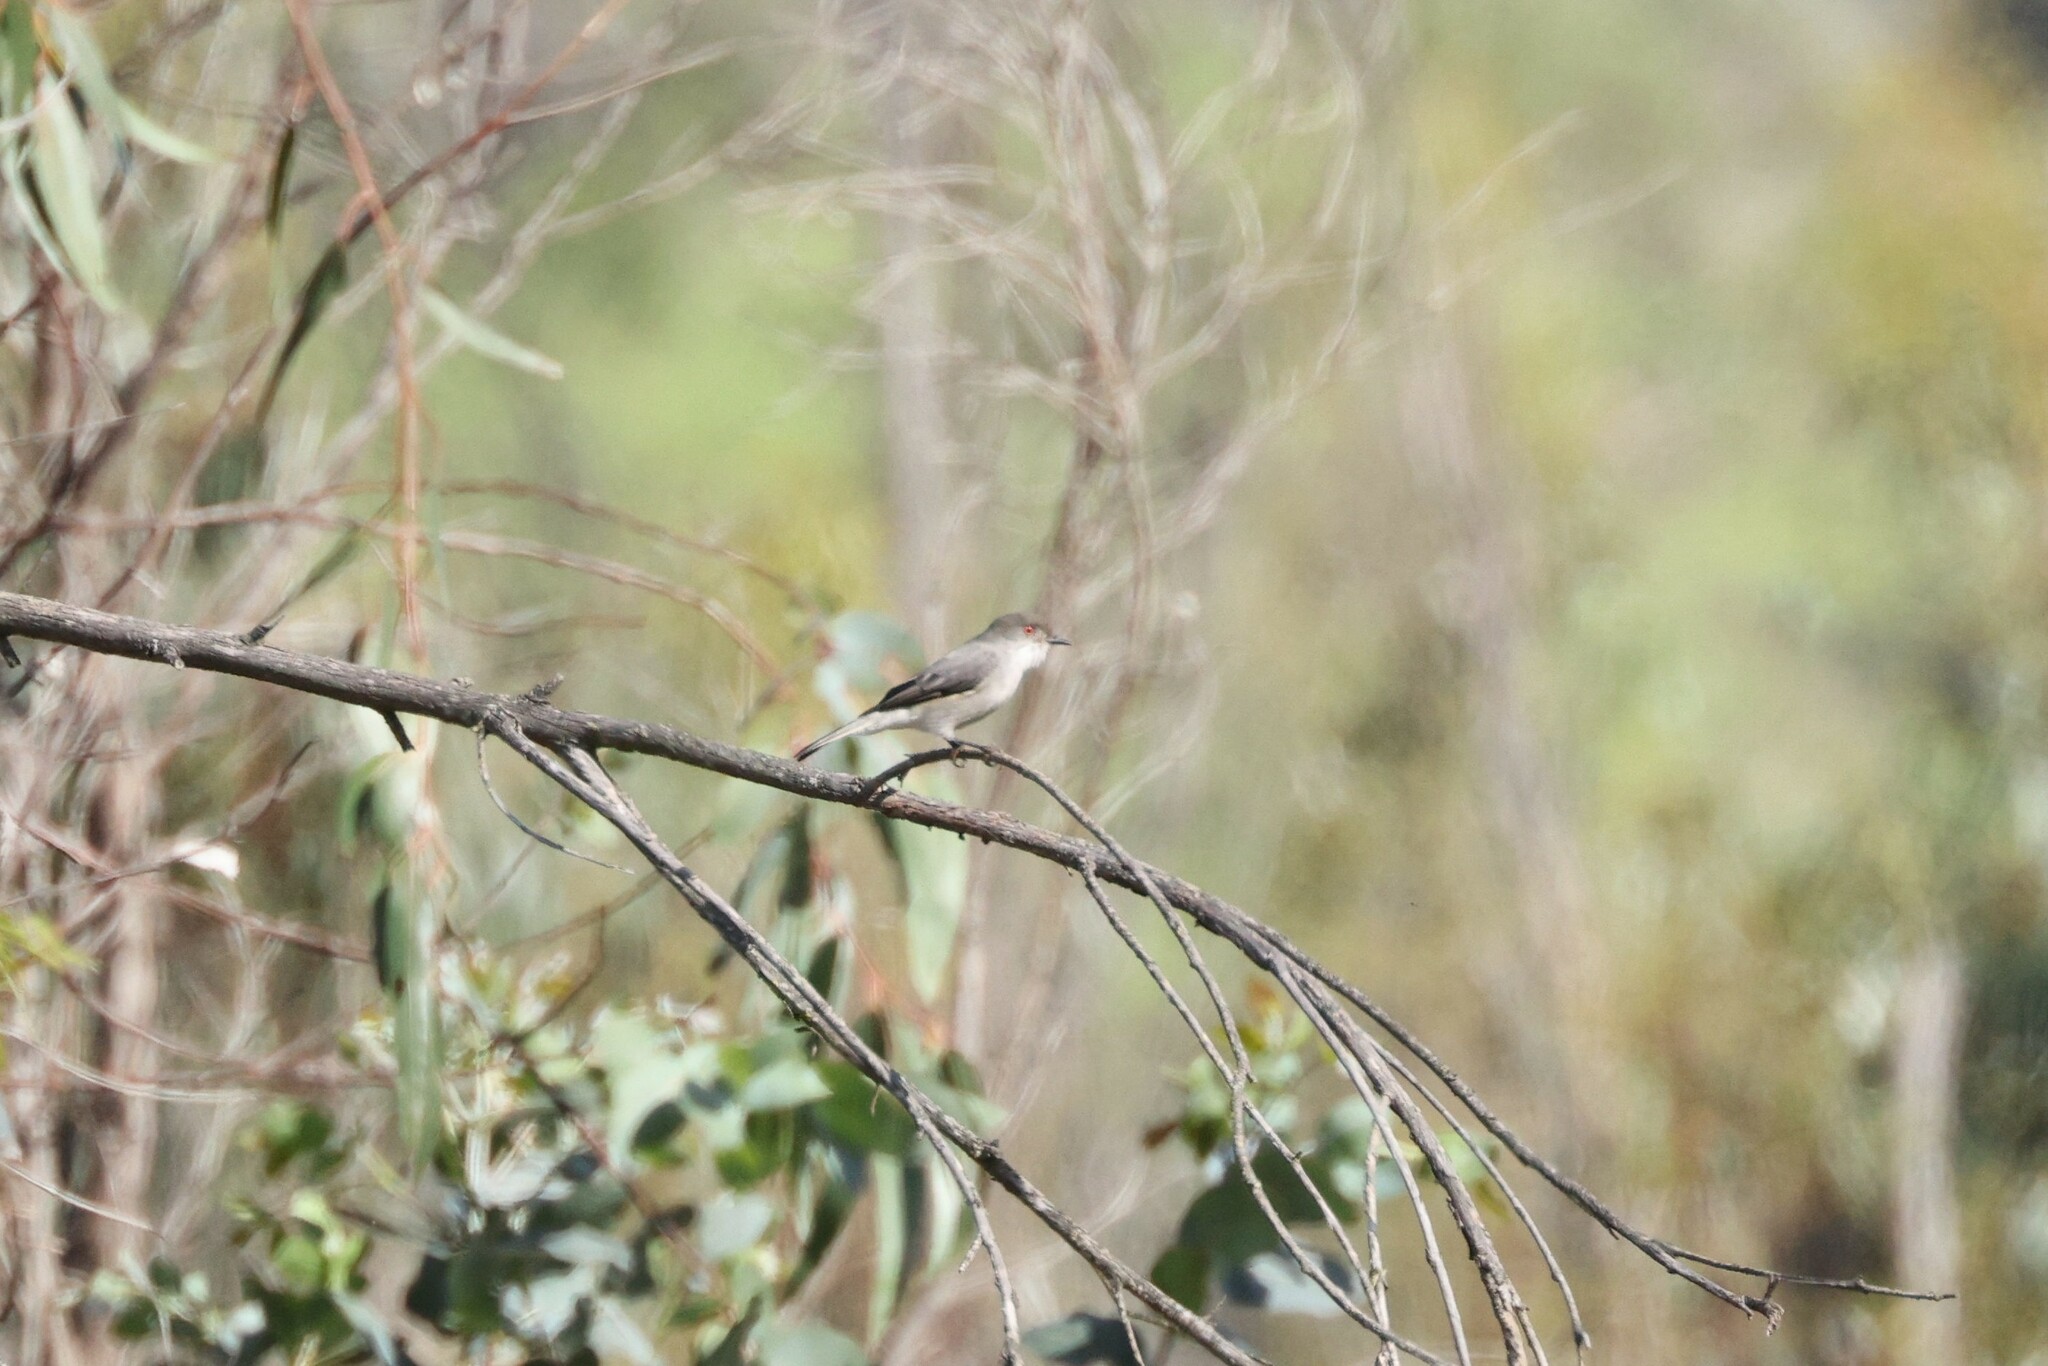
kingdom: Animalia
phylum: Chordata
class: Aves
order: Passeriformes
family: Tyrannidae
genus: Xolmis
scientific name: Xolmis pyrope
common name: Fire-eyed diucon
